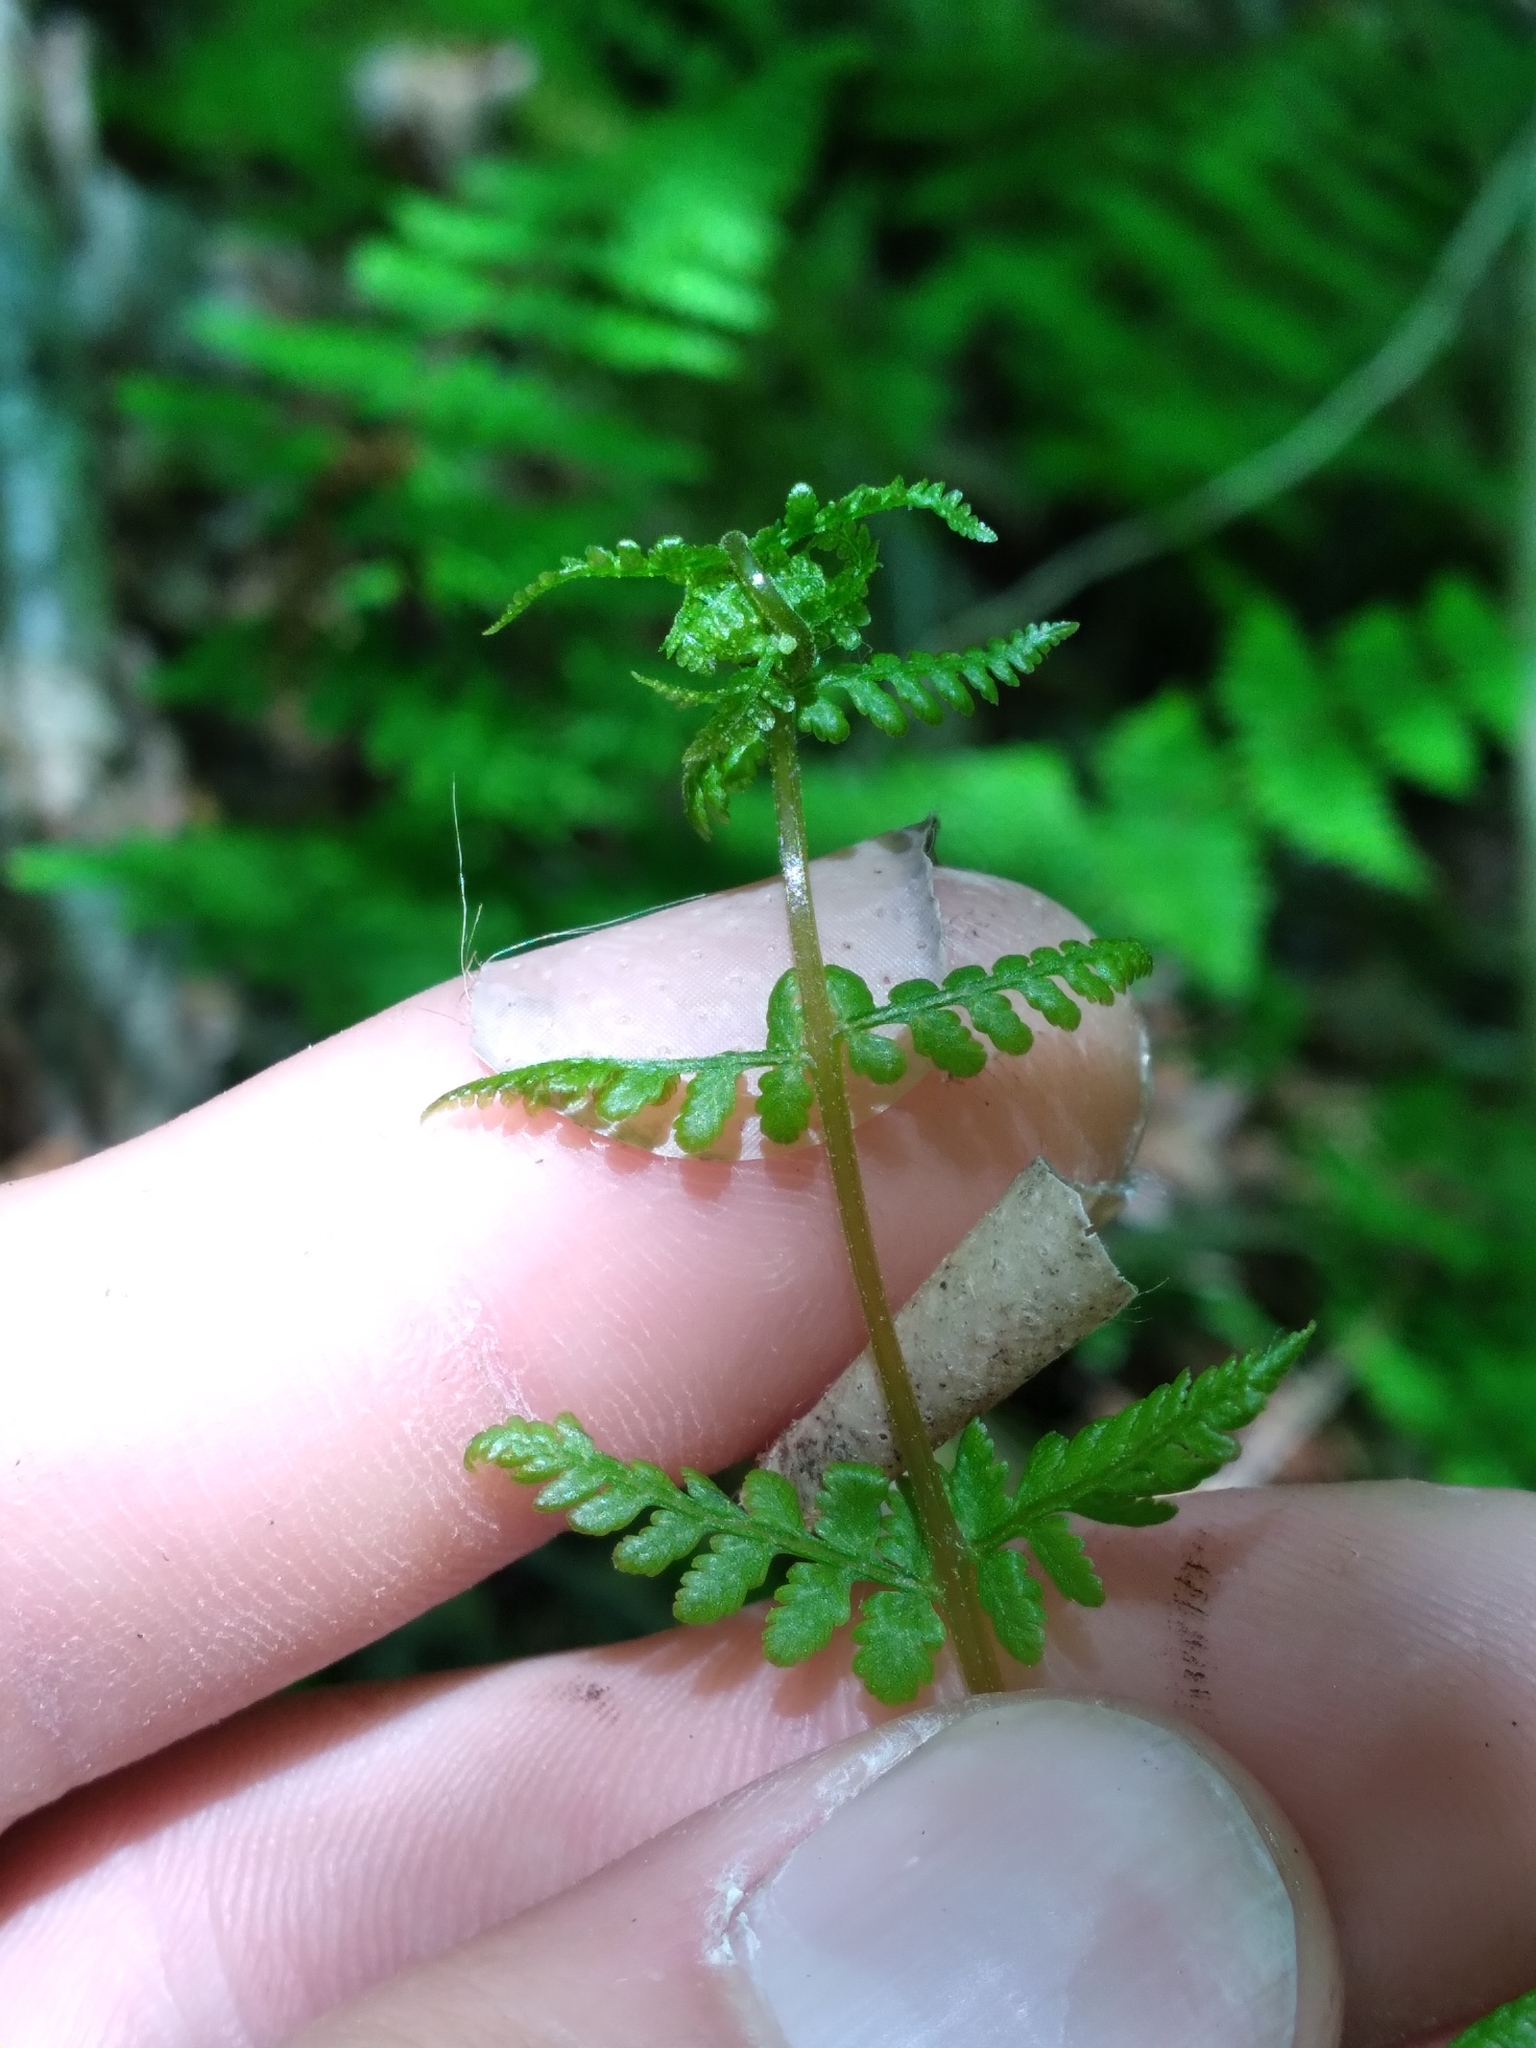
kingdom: Plantae
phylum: Tracheophyta
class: Polypodiopsida
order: Polypodiales
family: Cystopteridaceae
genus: Cystopteris
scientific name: Cystopteris bulbifera
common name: Bulblet bladder fern
